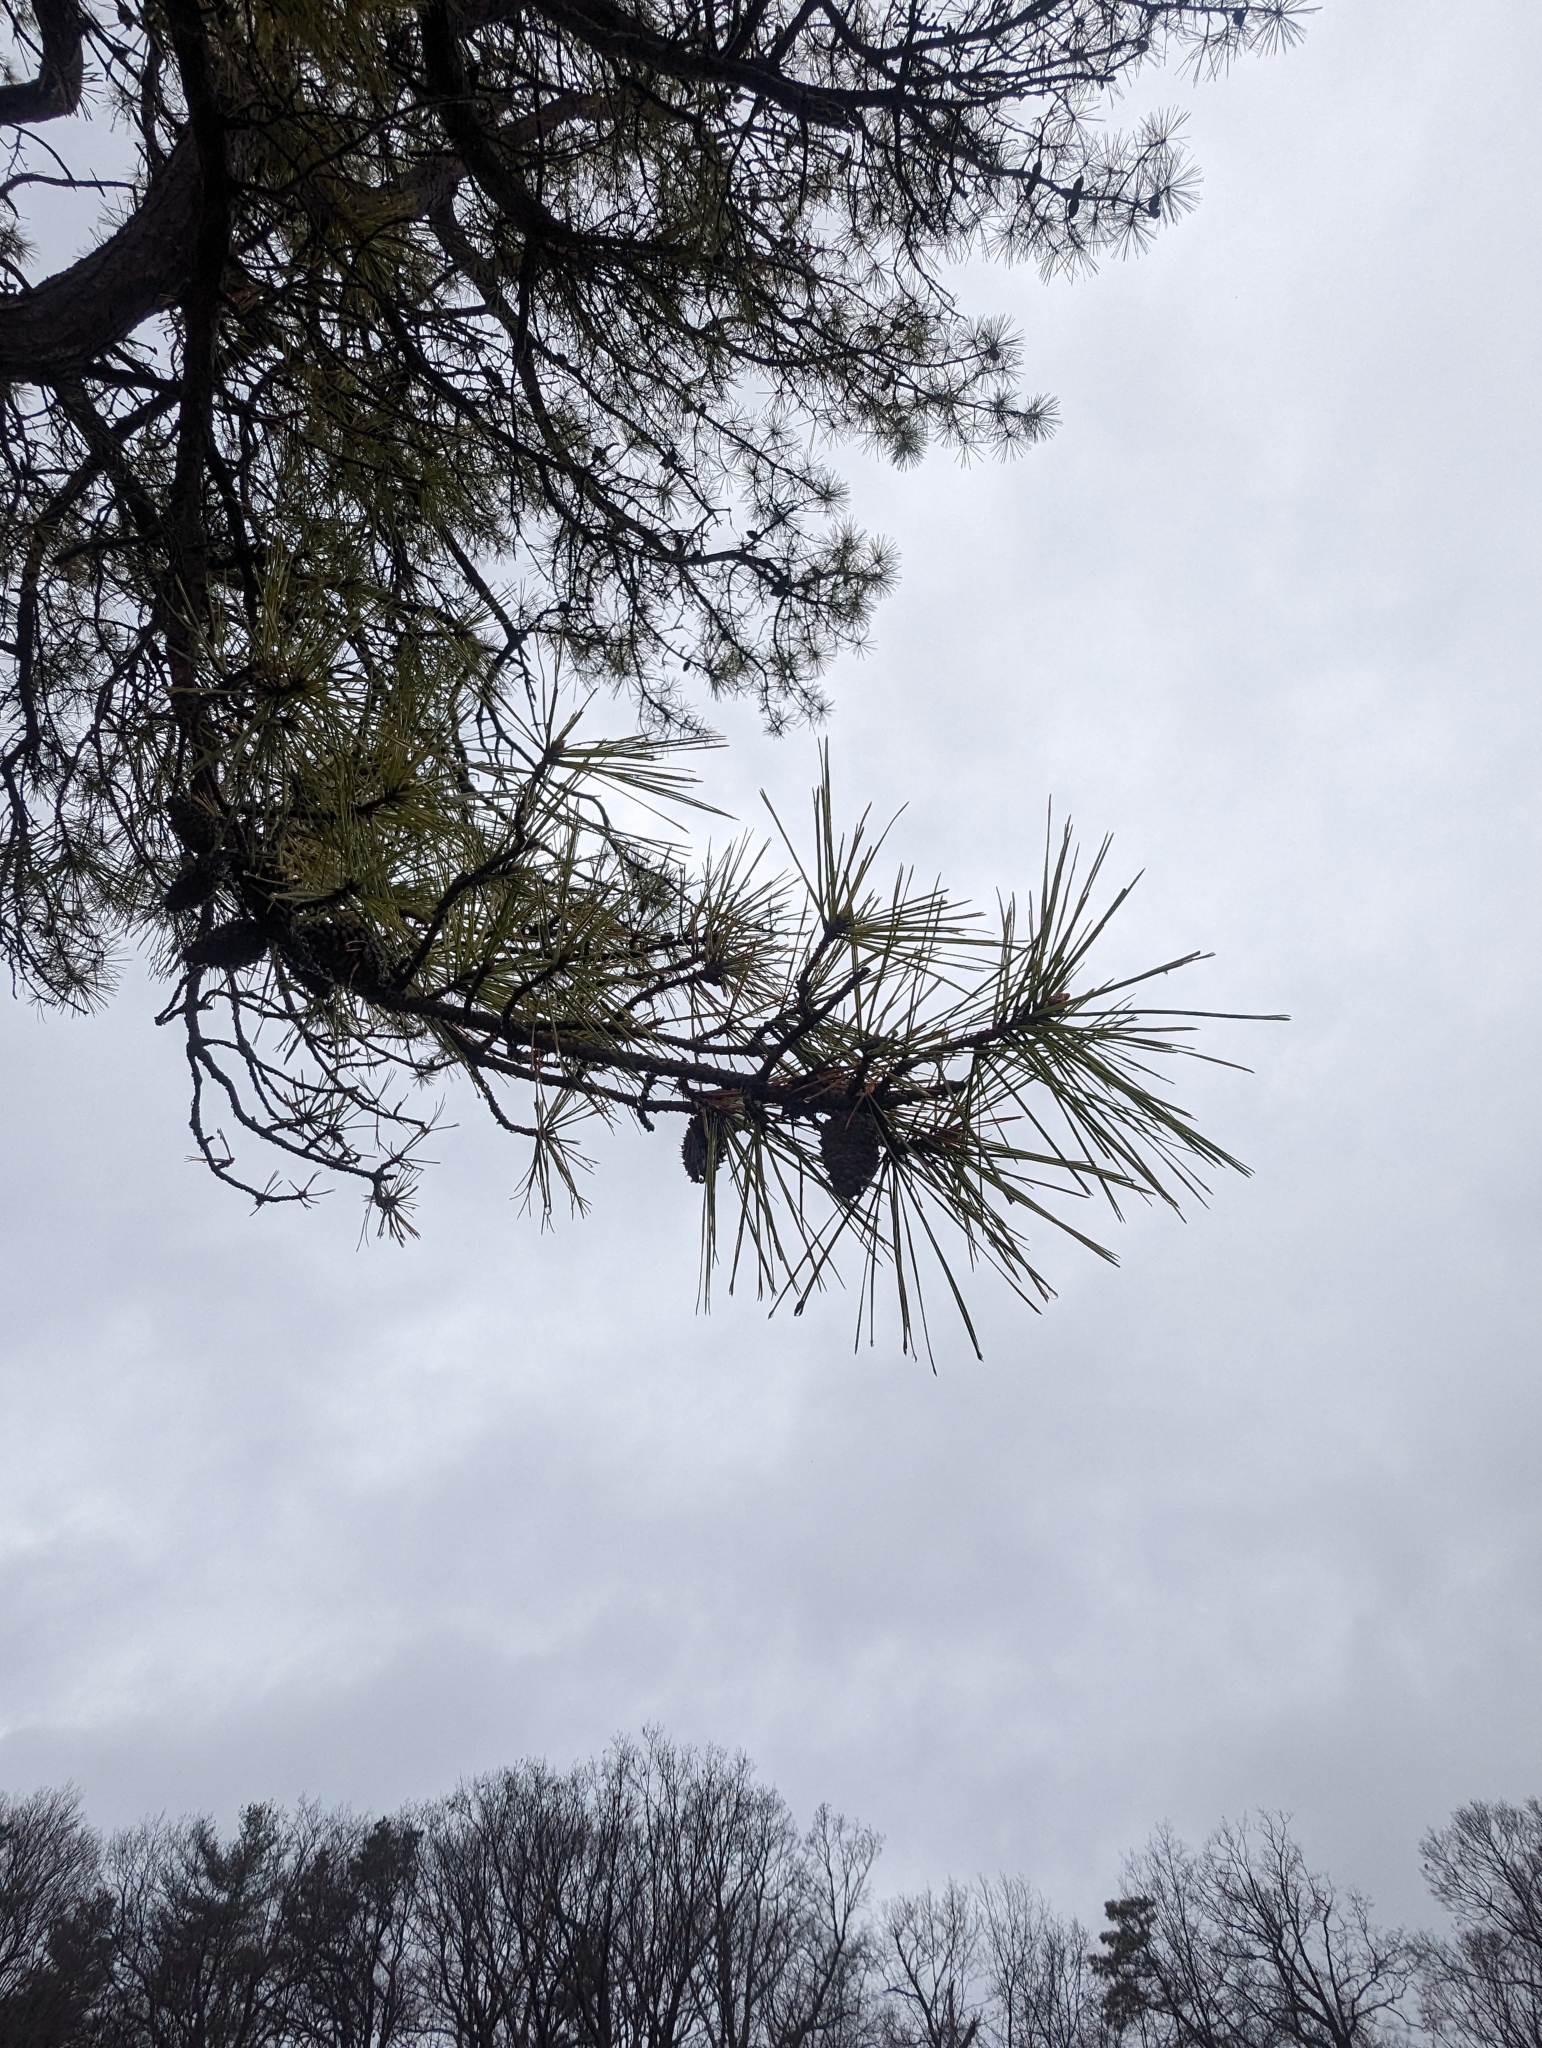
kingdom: Plantae
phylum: Tracheophyta
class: Pinopsida
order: Pinales
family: Pinaceae
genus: Pinus
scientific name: Pinus rigida
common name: Pitch pine
